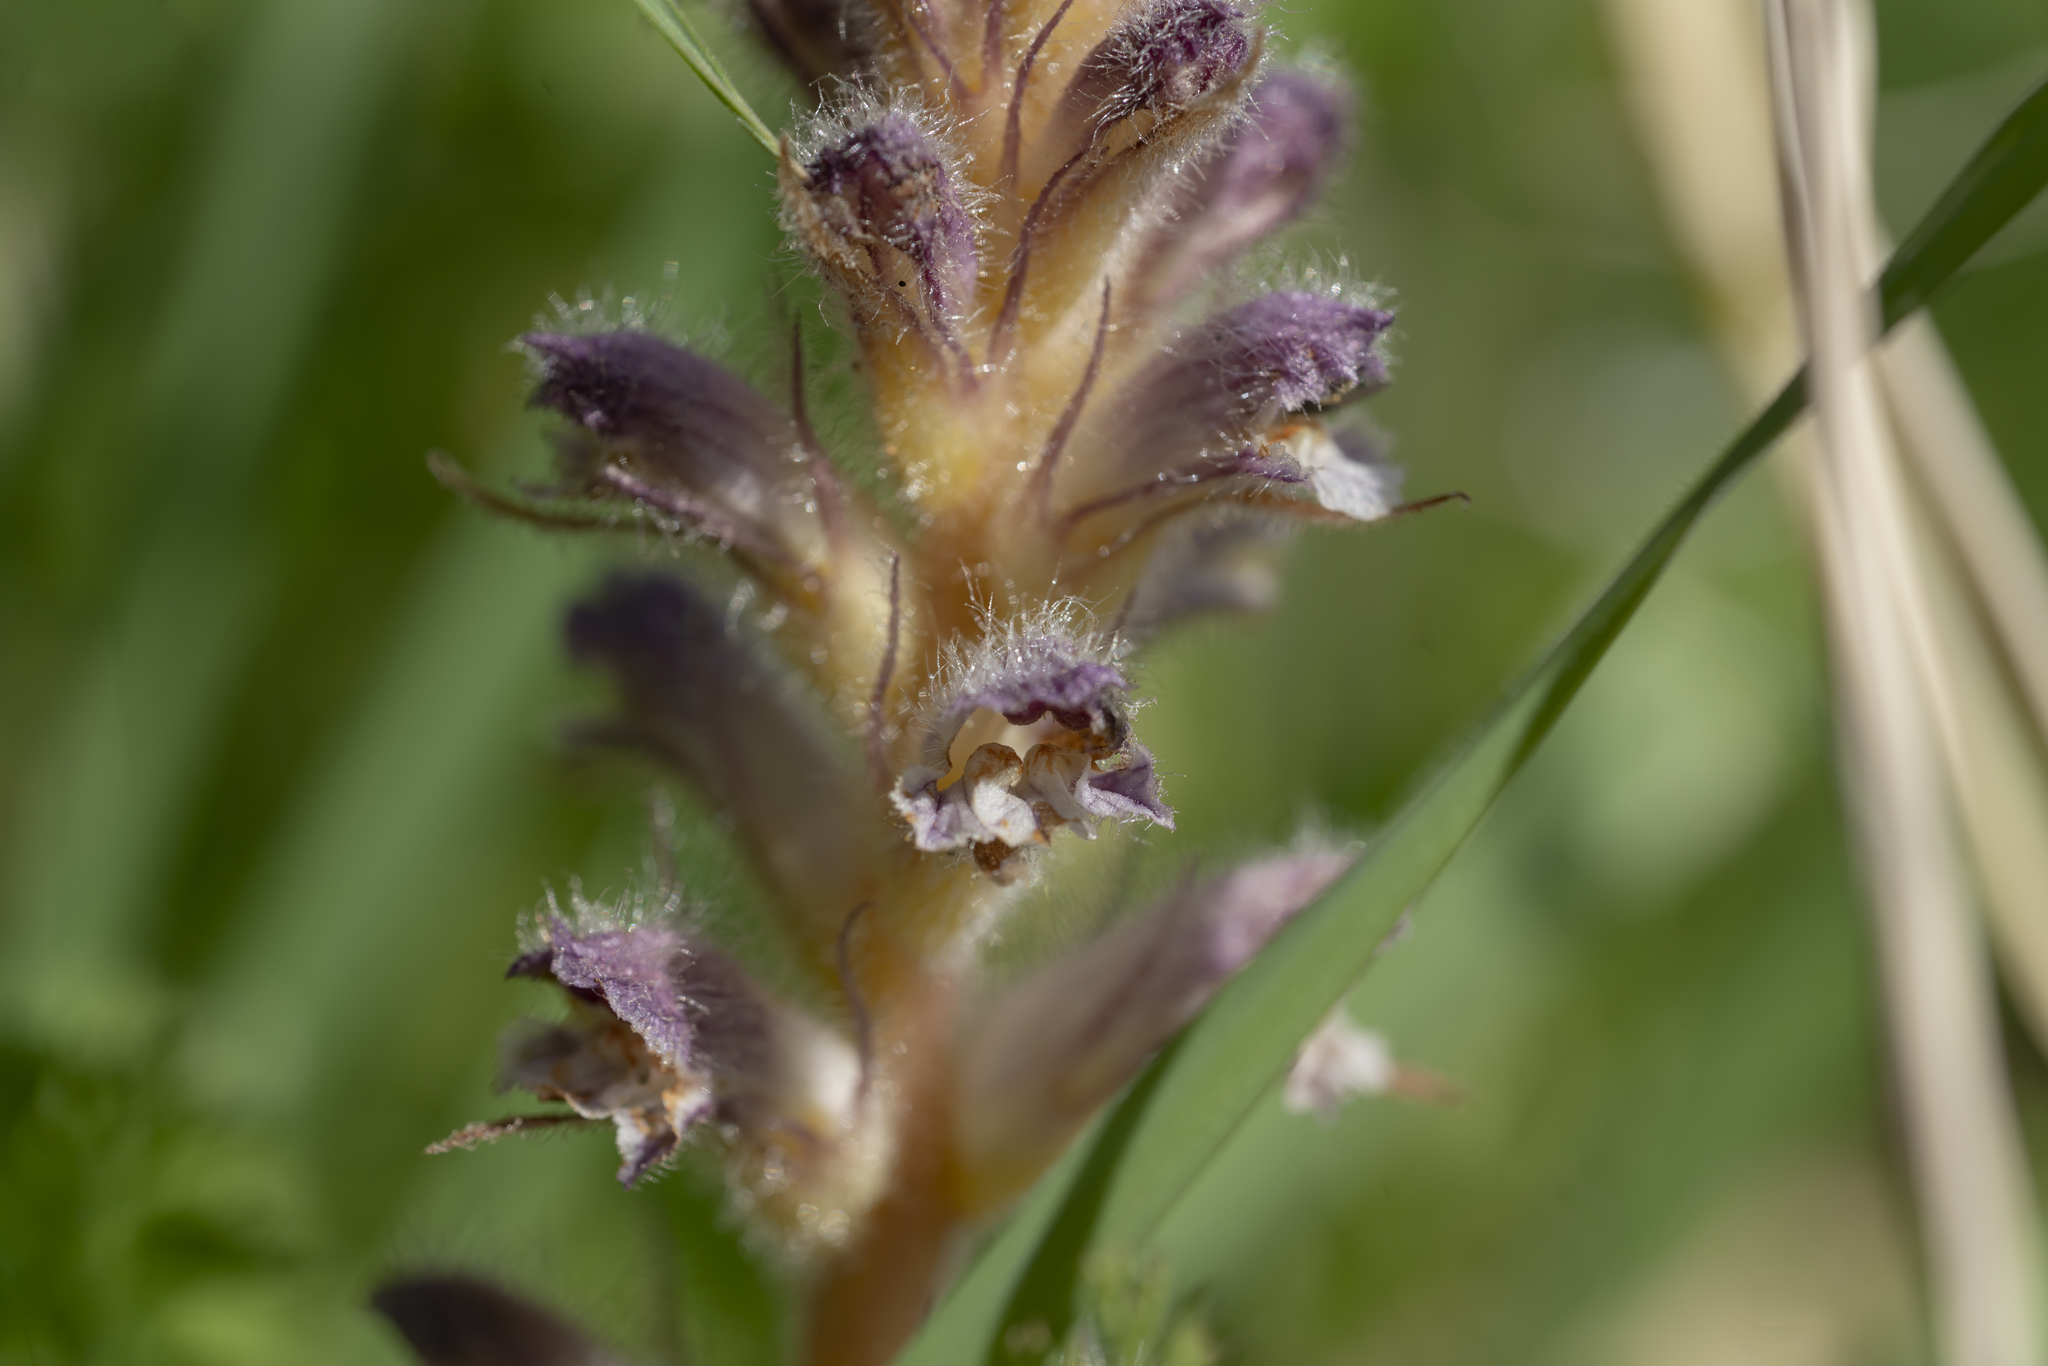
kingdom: Plantae
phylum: Tracheophyta
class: Magnoliopsida
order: Lamiales
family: Orobanchaceae
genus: Orobanche
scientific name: Orobanche pubescens
